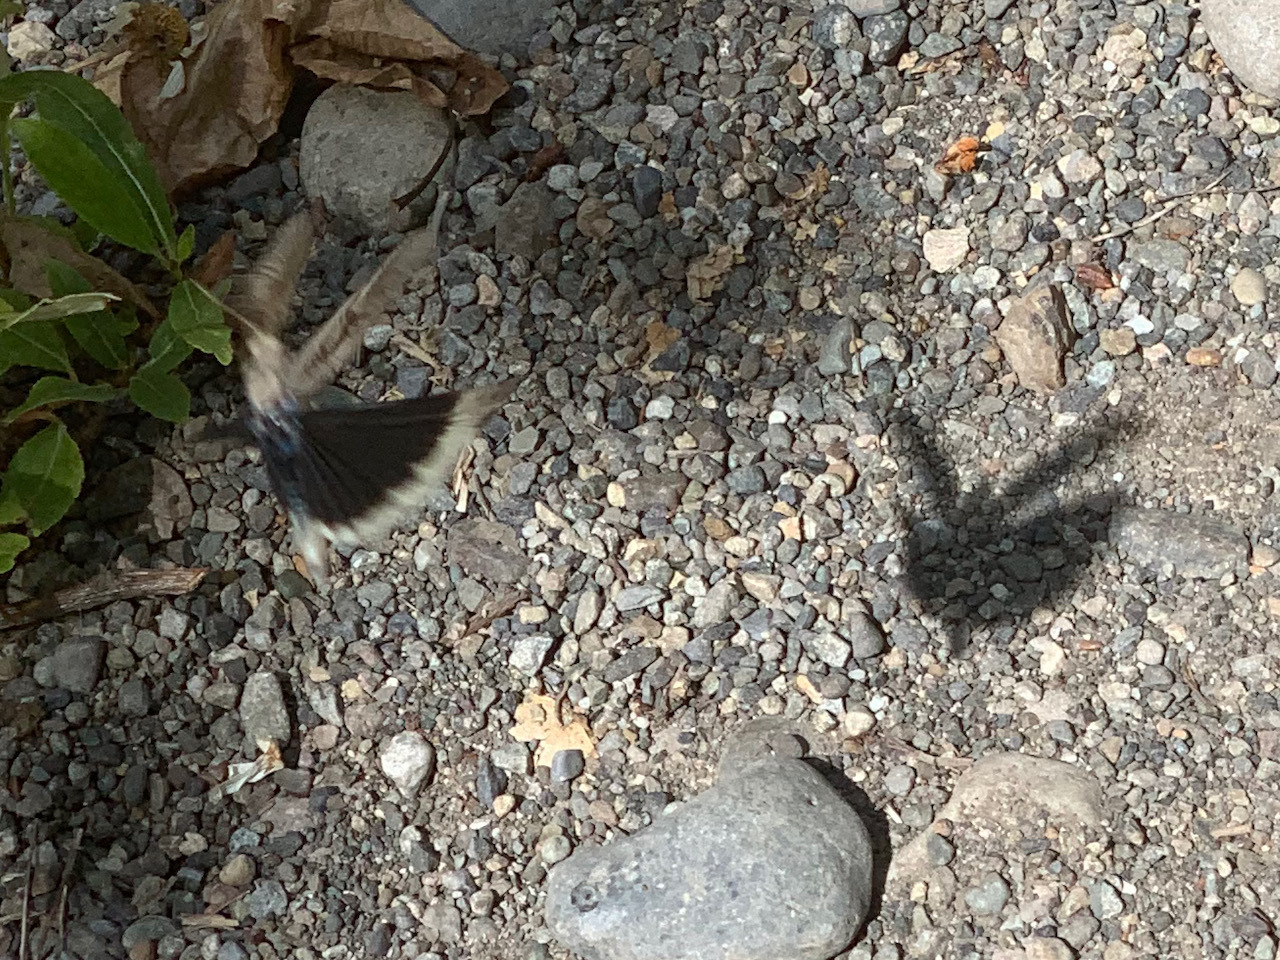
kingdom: Animalia
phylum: Arthropoda
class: Insecta
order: Orthoptera
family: Acrididae
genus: Dissosteira
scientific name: Dissosteira carolina
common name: Carolina grasshopper
